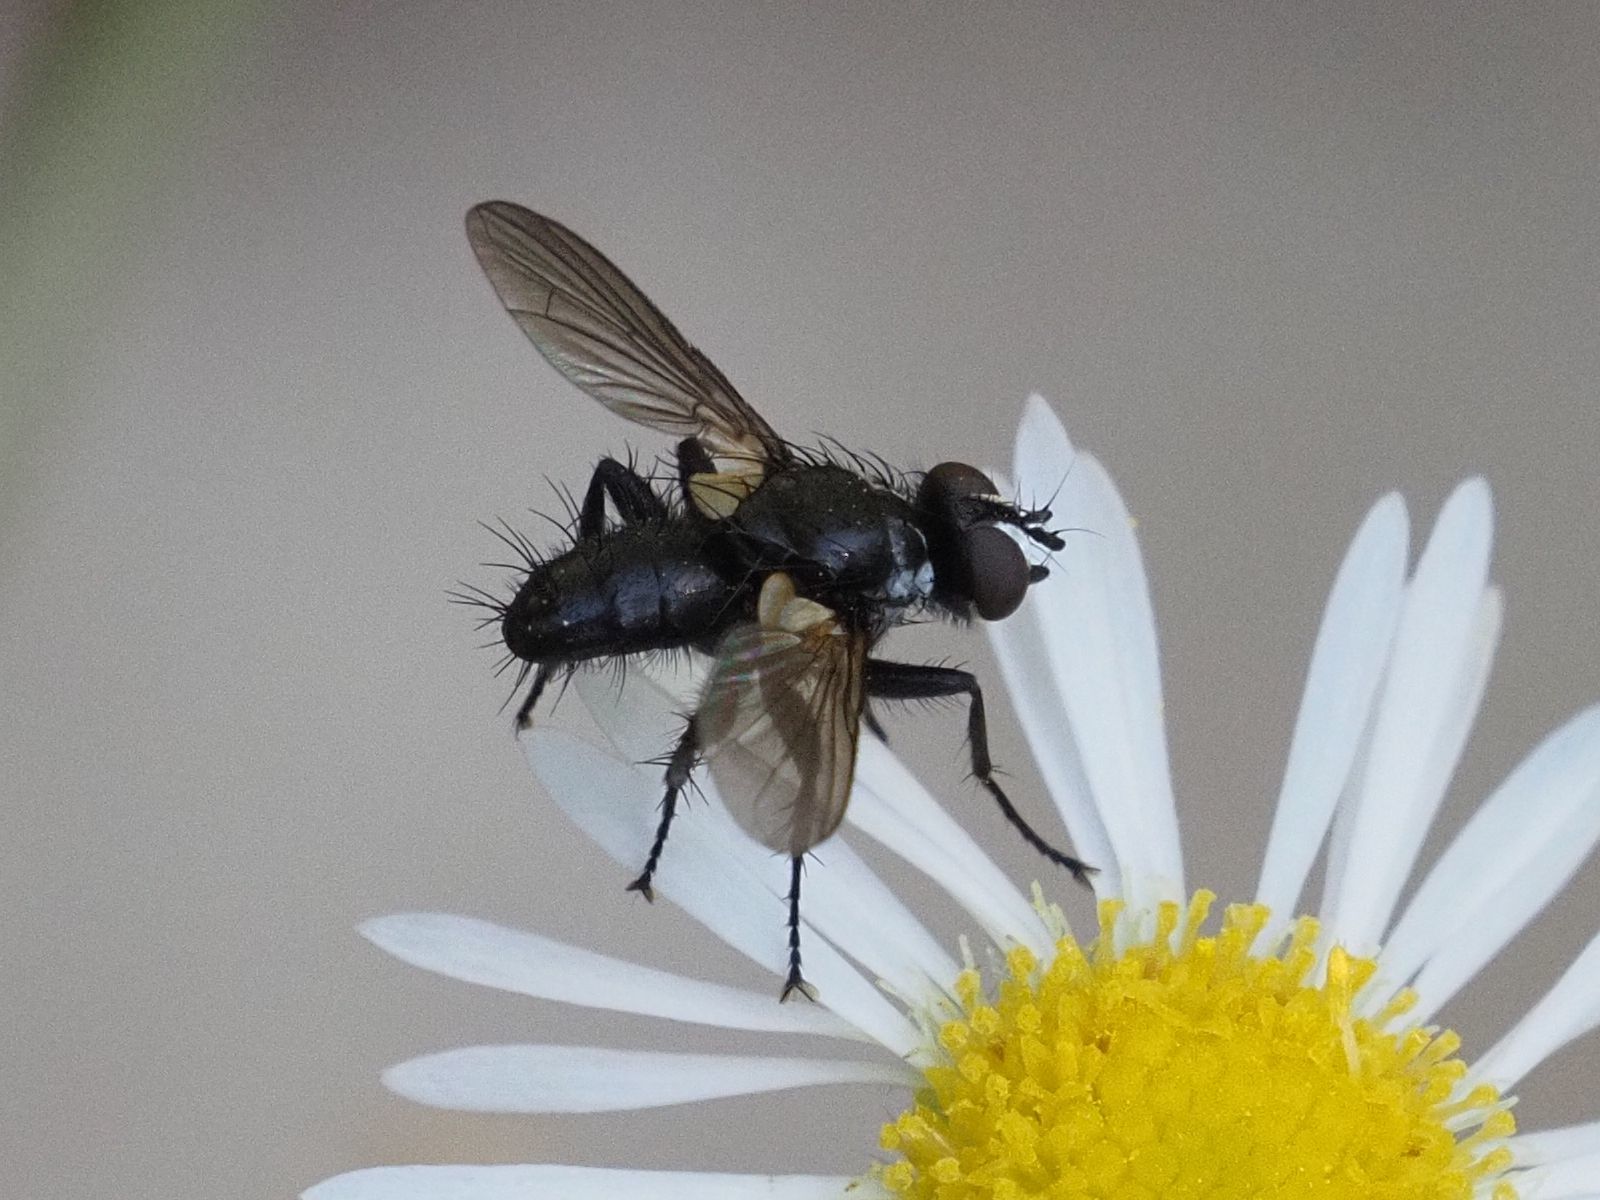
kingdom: Animalia
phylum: Arthropoda
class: Insecta
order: Diptera
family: Tachinidae
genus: Phania
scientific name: Phania funesta
